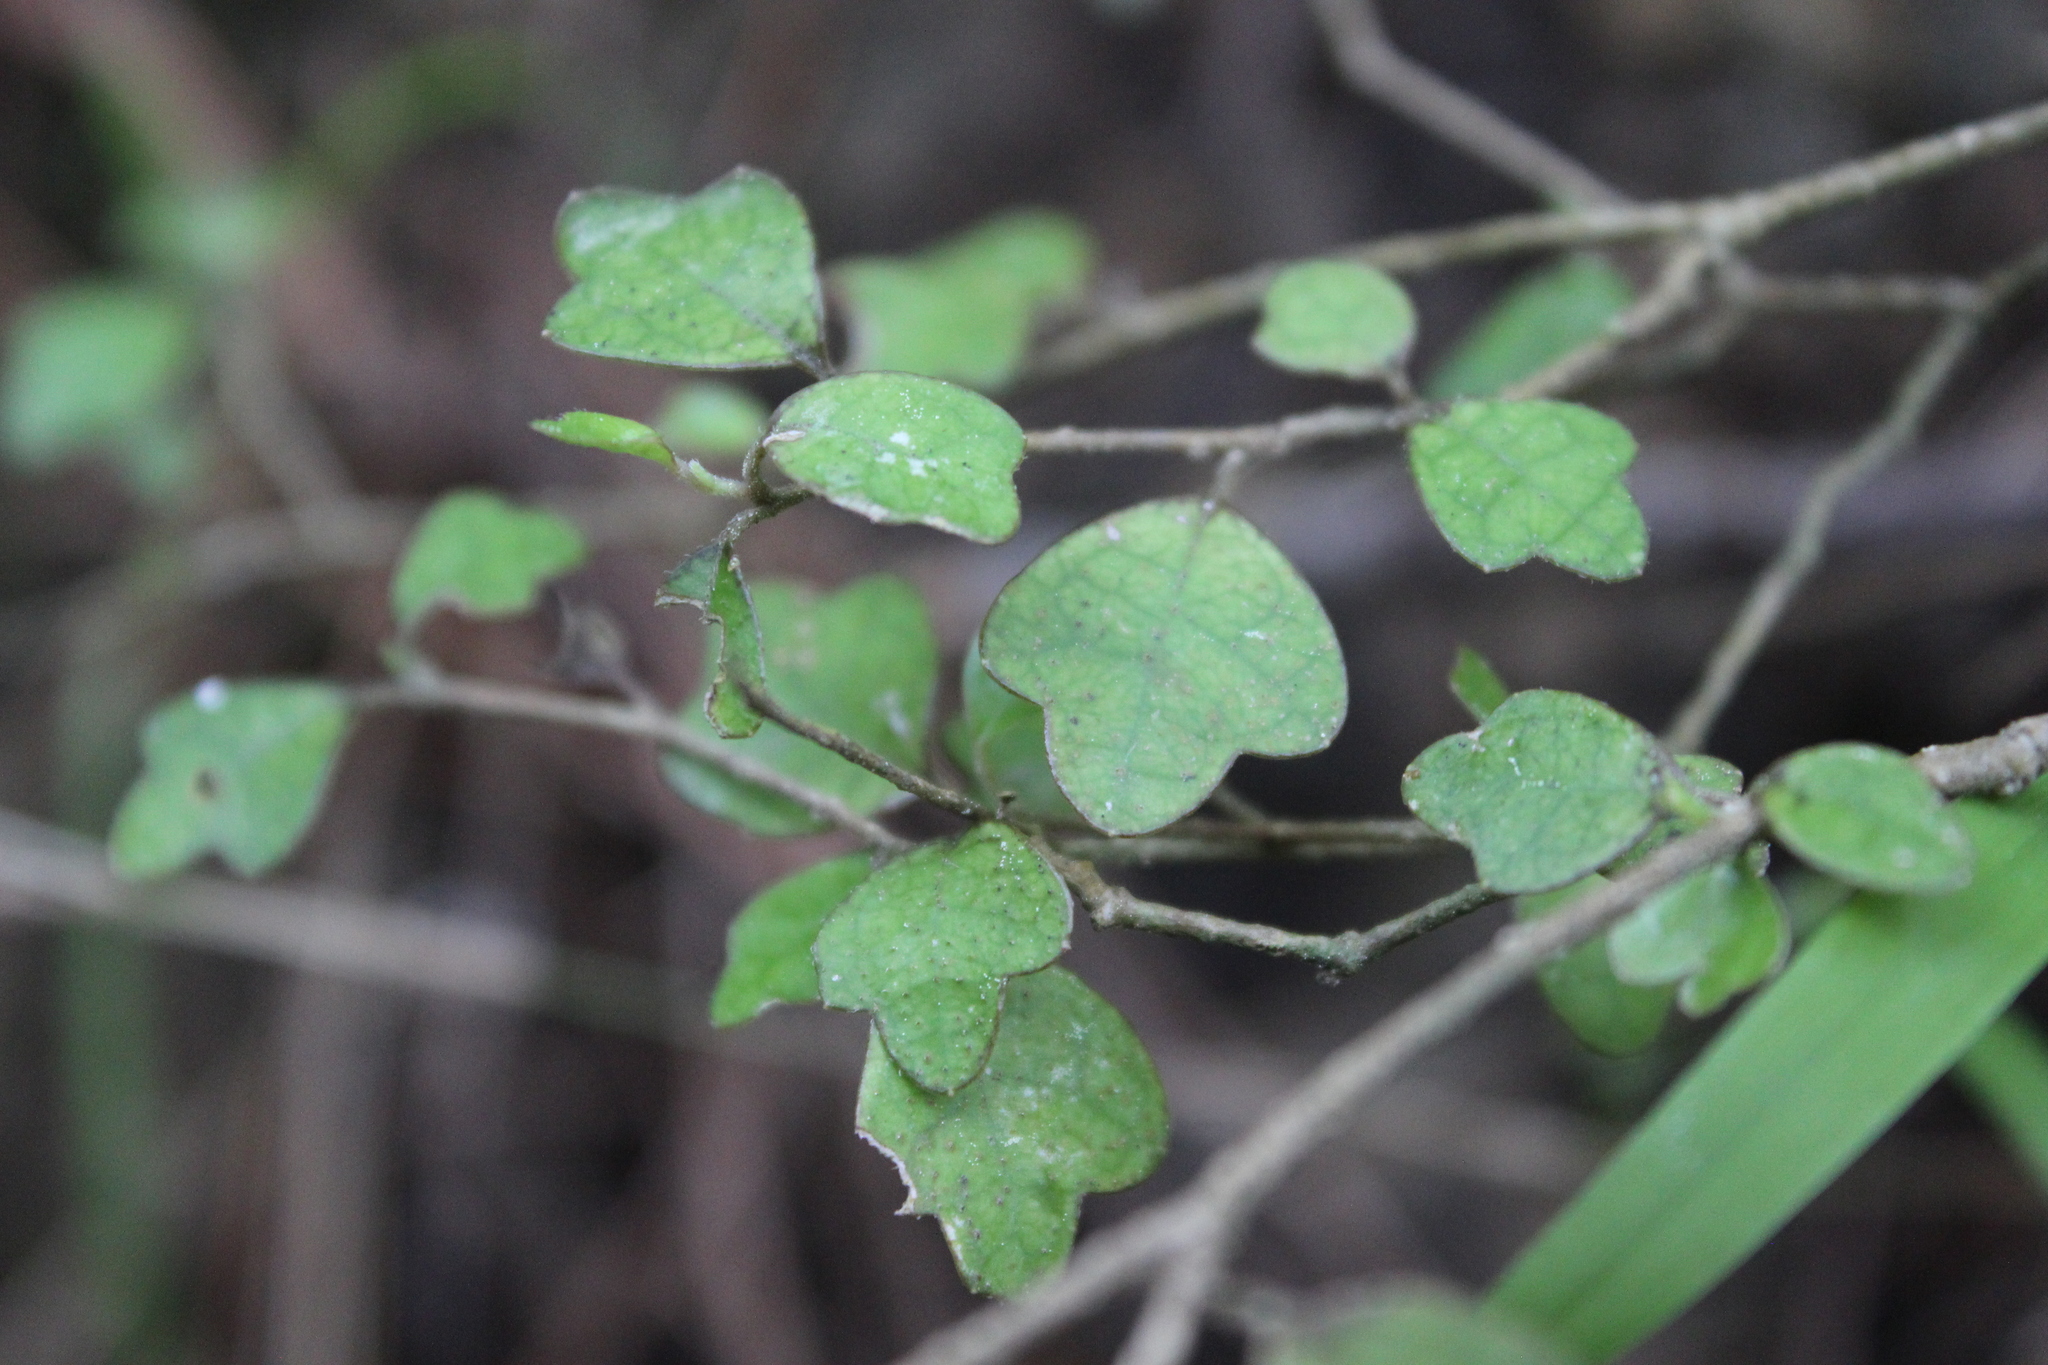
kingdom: Plantae
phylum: Tracheophyta
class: Magnoliopsida
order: Apiales
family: Pennantiaceae
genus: Pennantia
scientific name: Pennantia corymbosa
